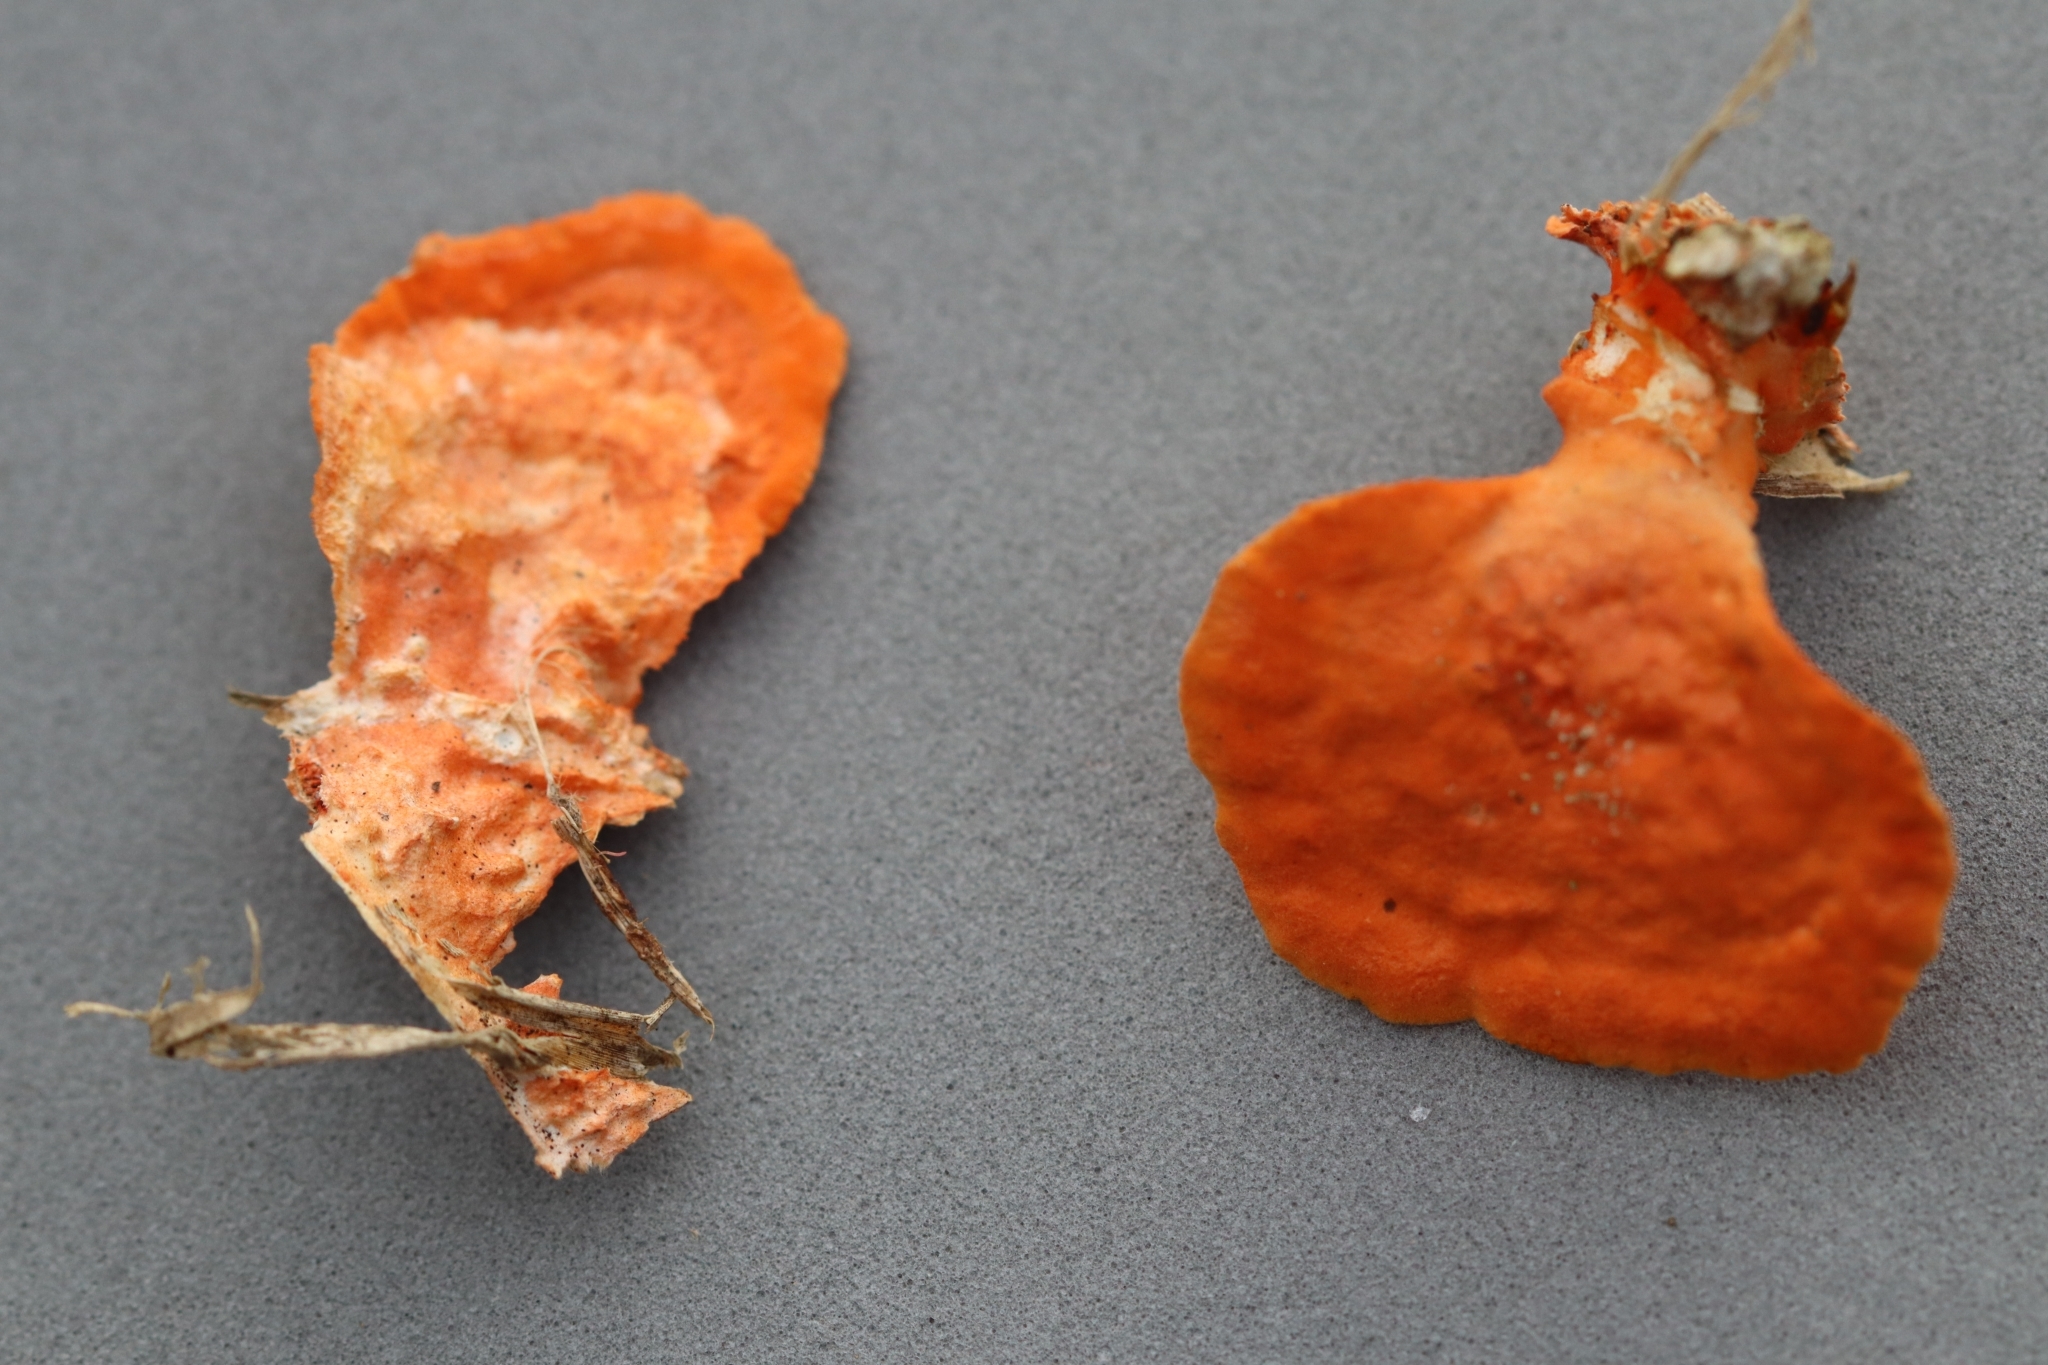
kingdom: Fungi
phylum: Basidiomycota
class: Agaricomycetes
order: Polyporales
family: Polyporaceae
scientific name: Polyporaceae
